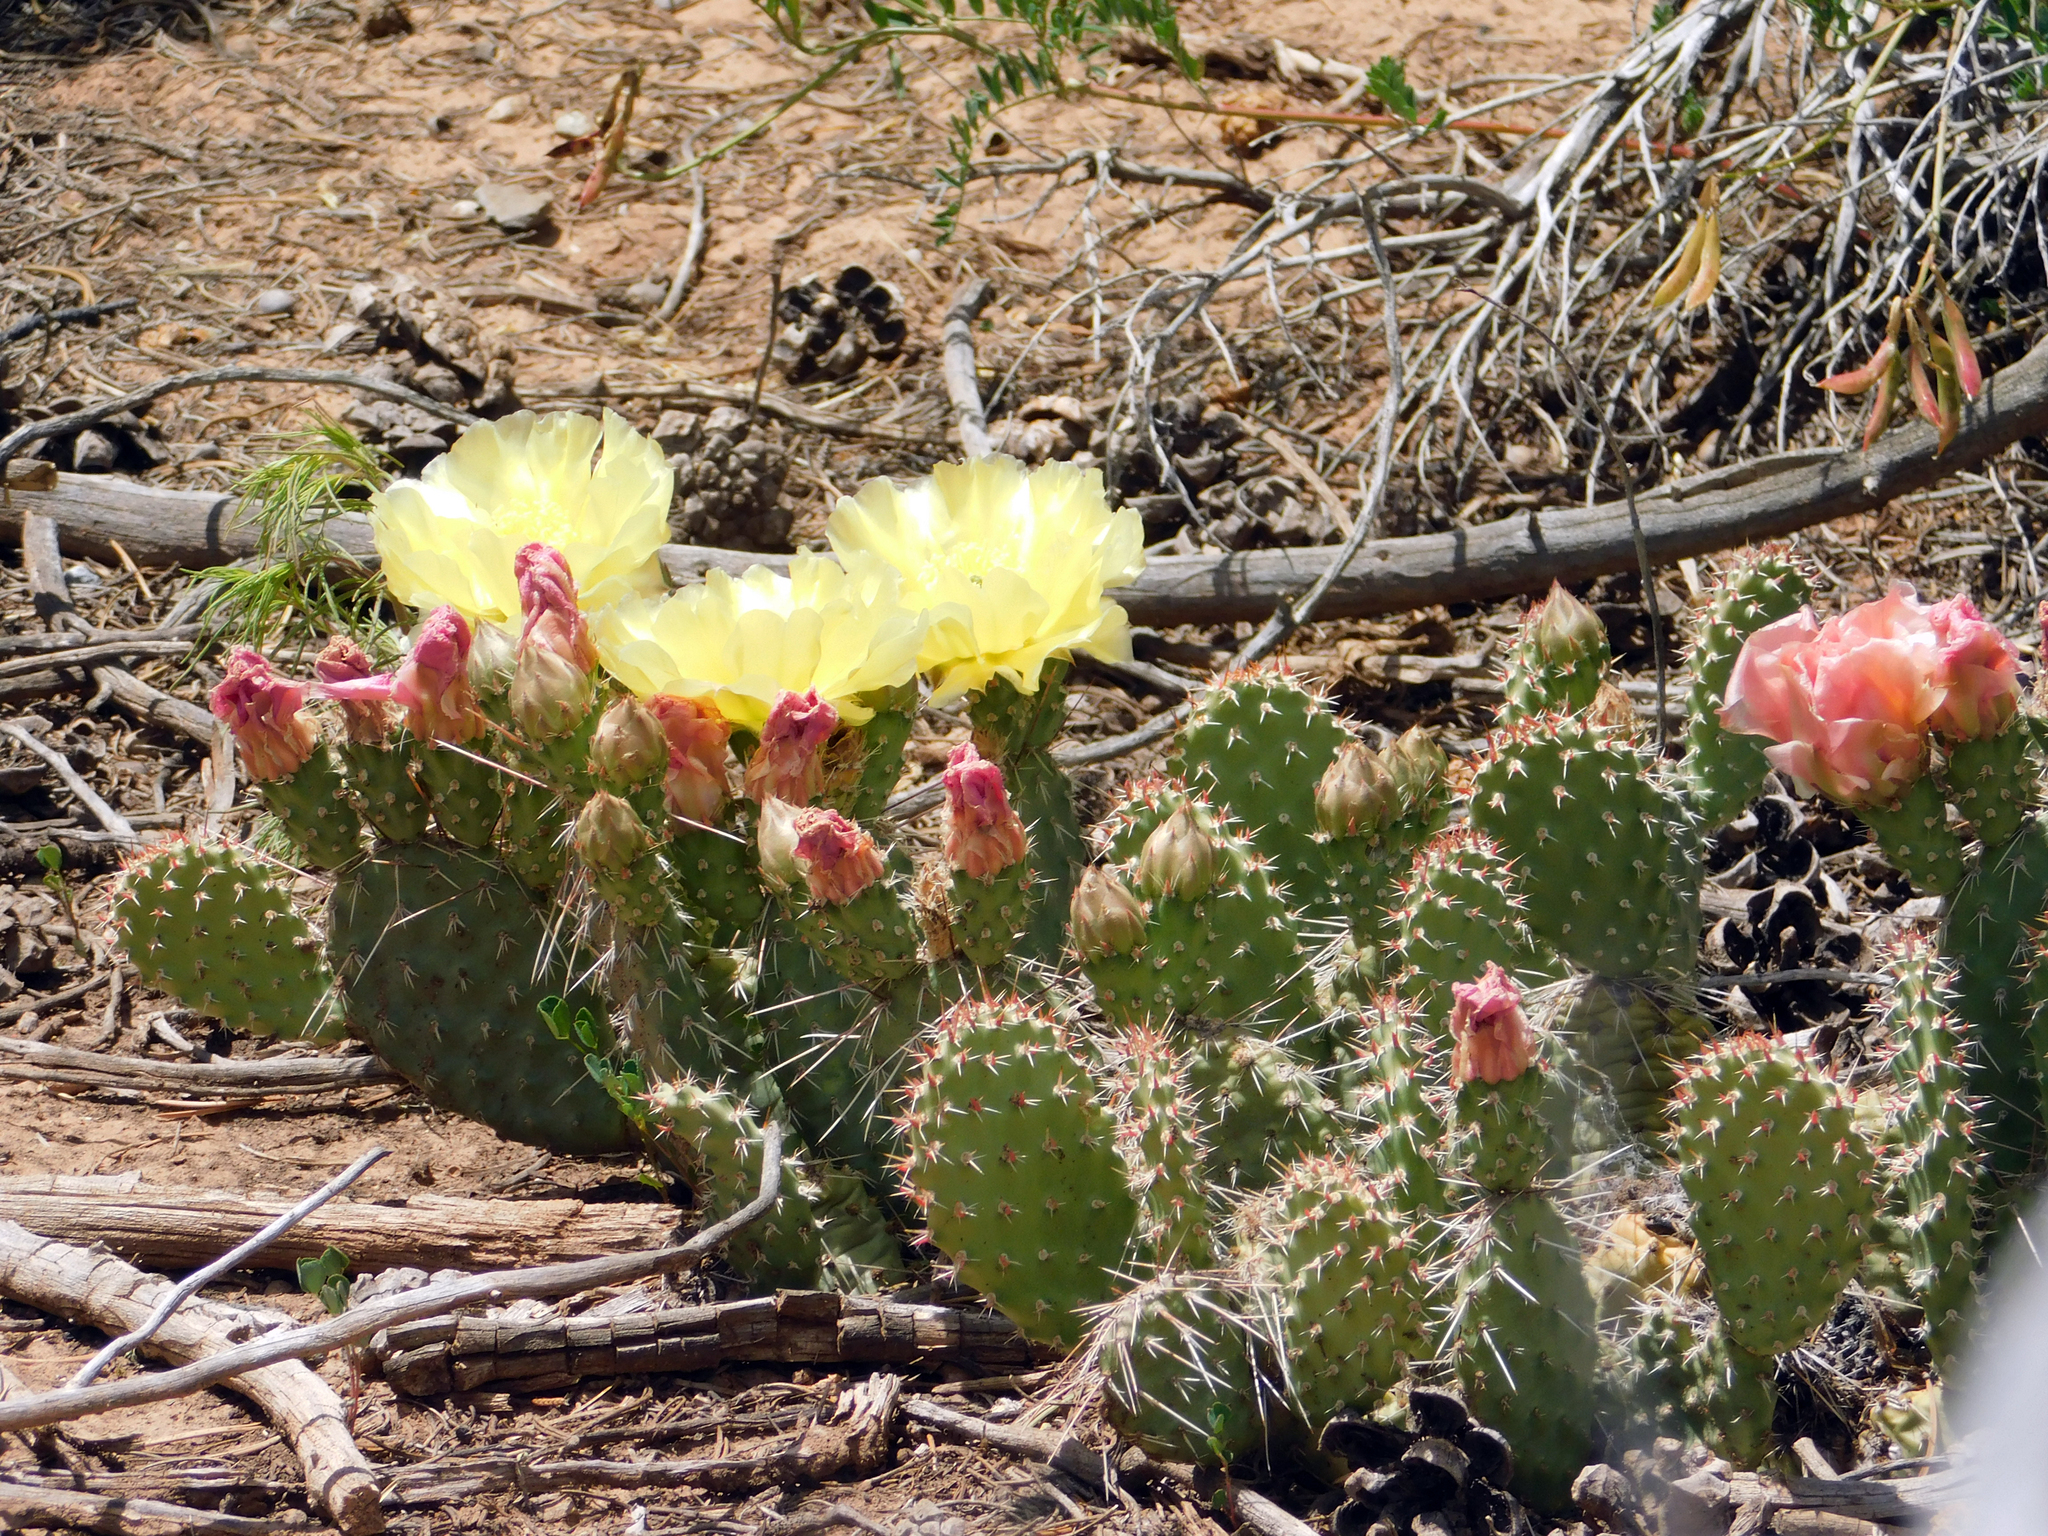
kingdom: Plantae
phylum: Tracheophyta
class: Magnoliopsida
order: Caryophyllales
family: Cactaceae
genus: Opuntia
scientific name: Opuntia polyacantha
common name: Plains prickly-pear
